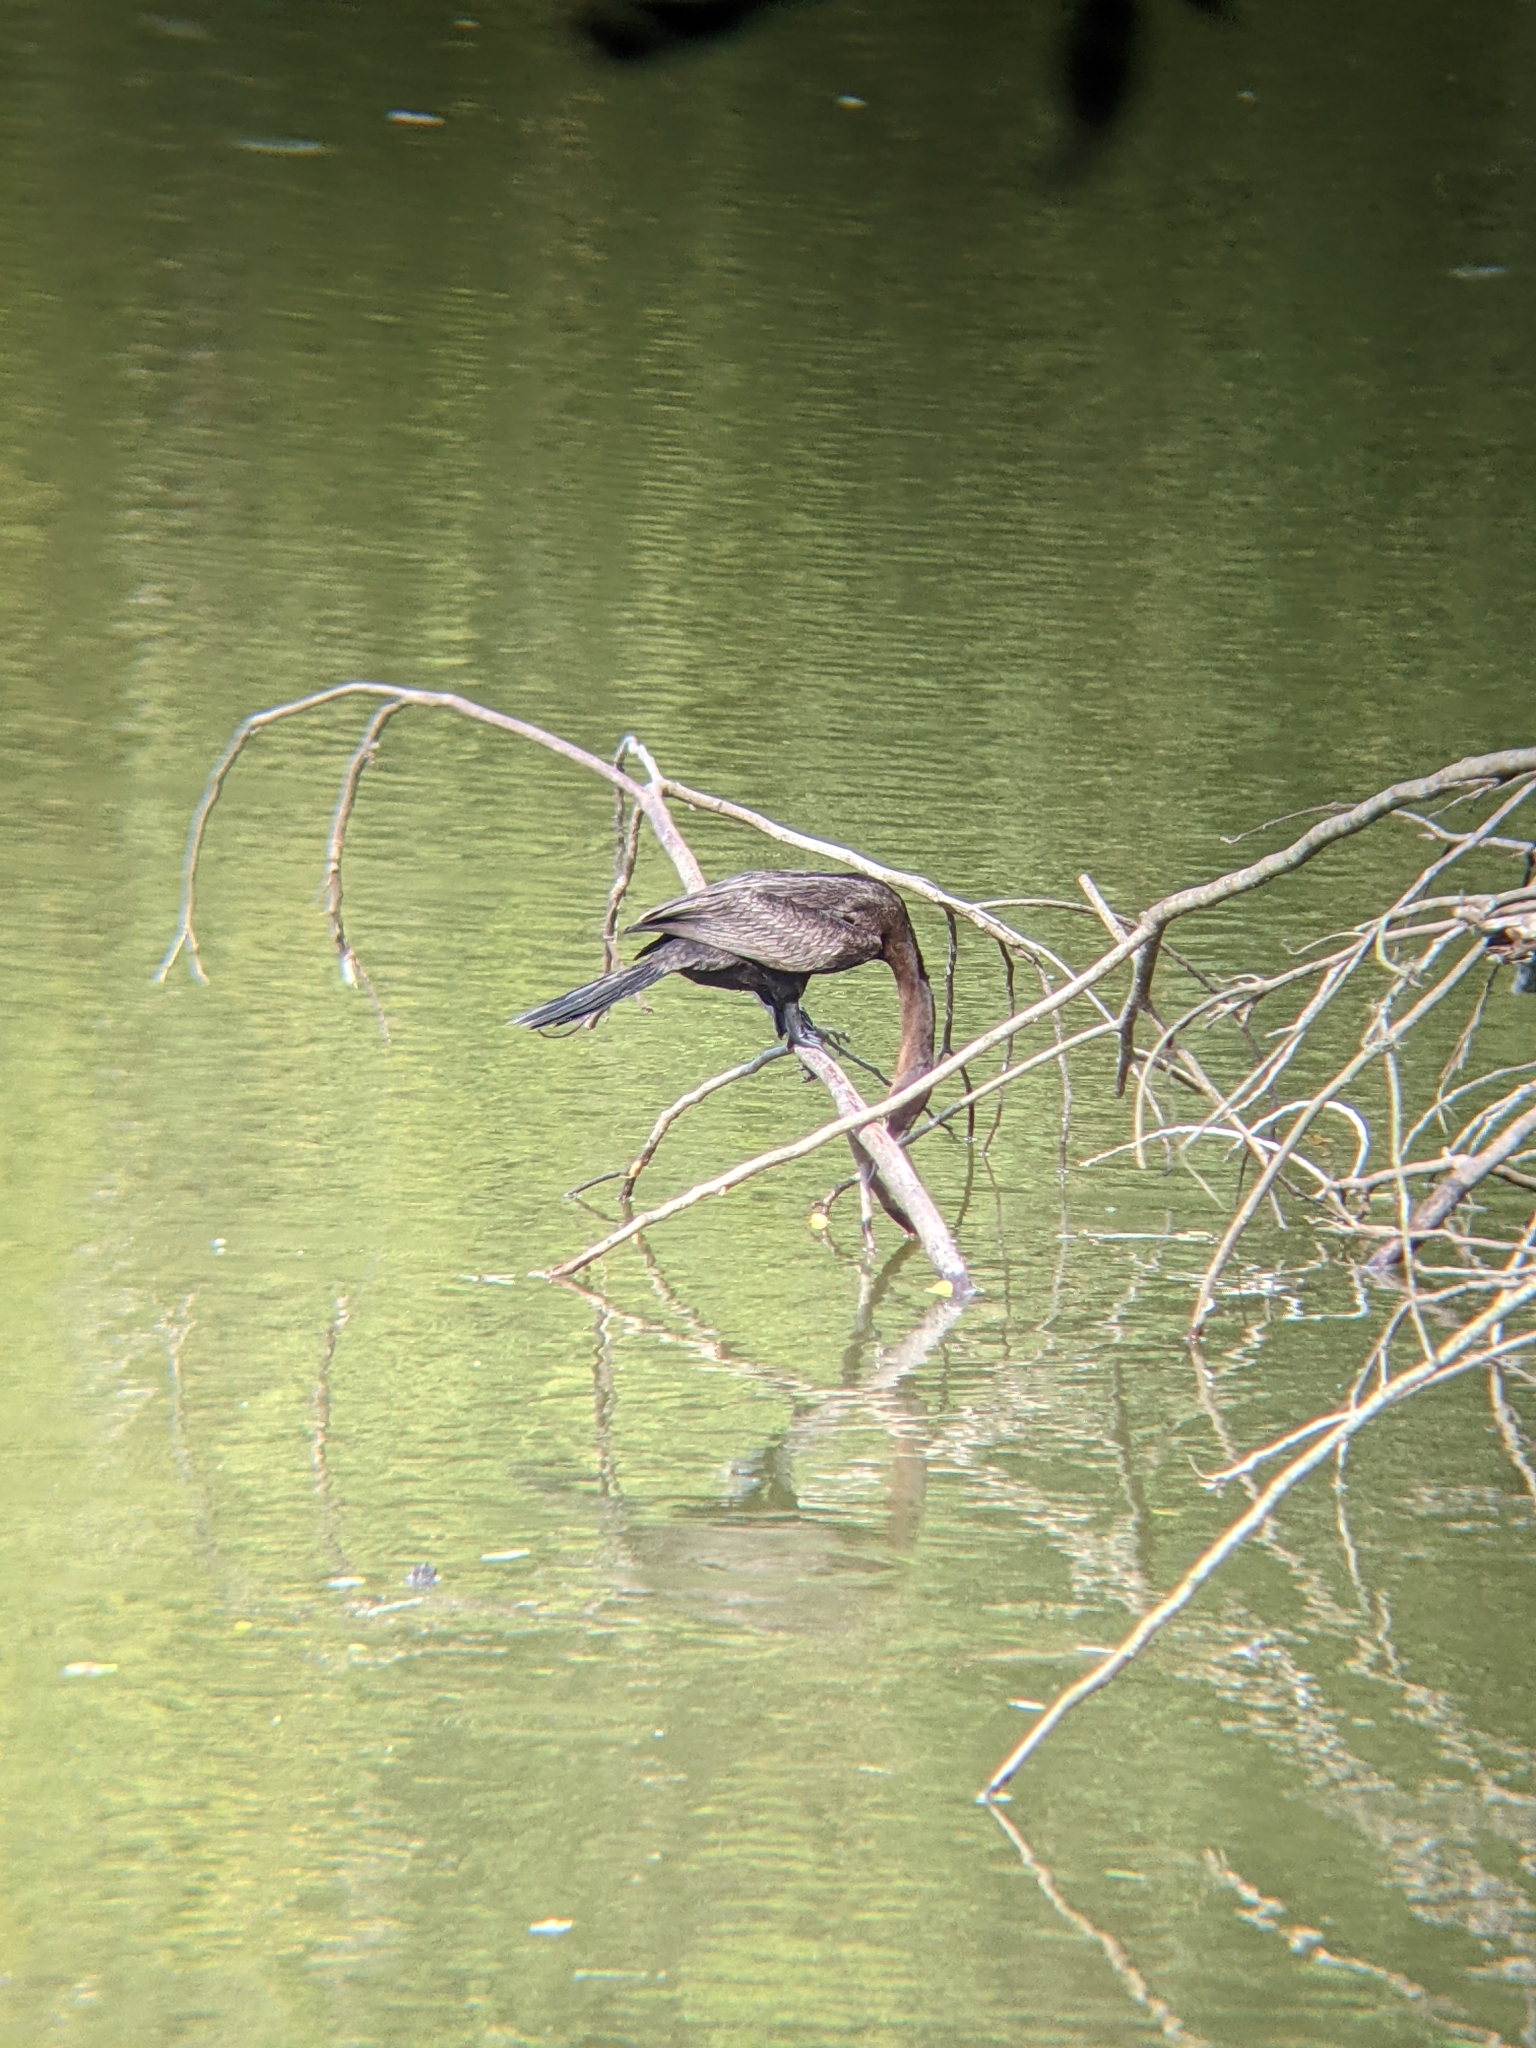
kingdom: Animalia
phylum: Chordata
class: Aves
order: Suliformes
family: Phalacrocoracidae
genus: Phalacrocorax
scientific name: Phalacrocorax brasilianus
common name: Neotropic cormorant
